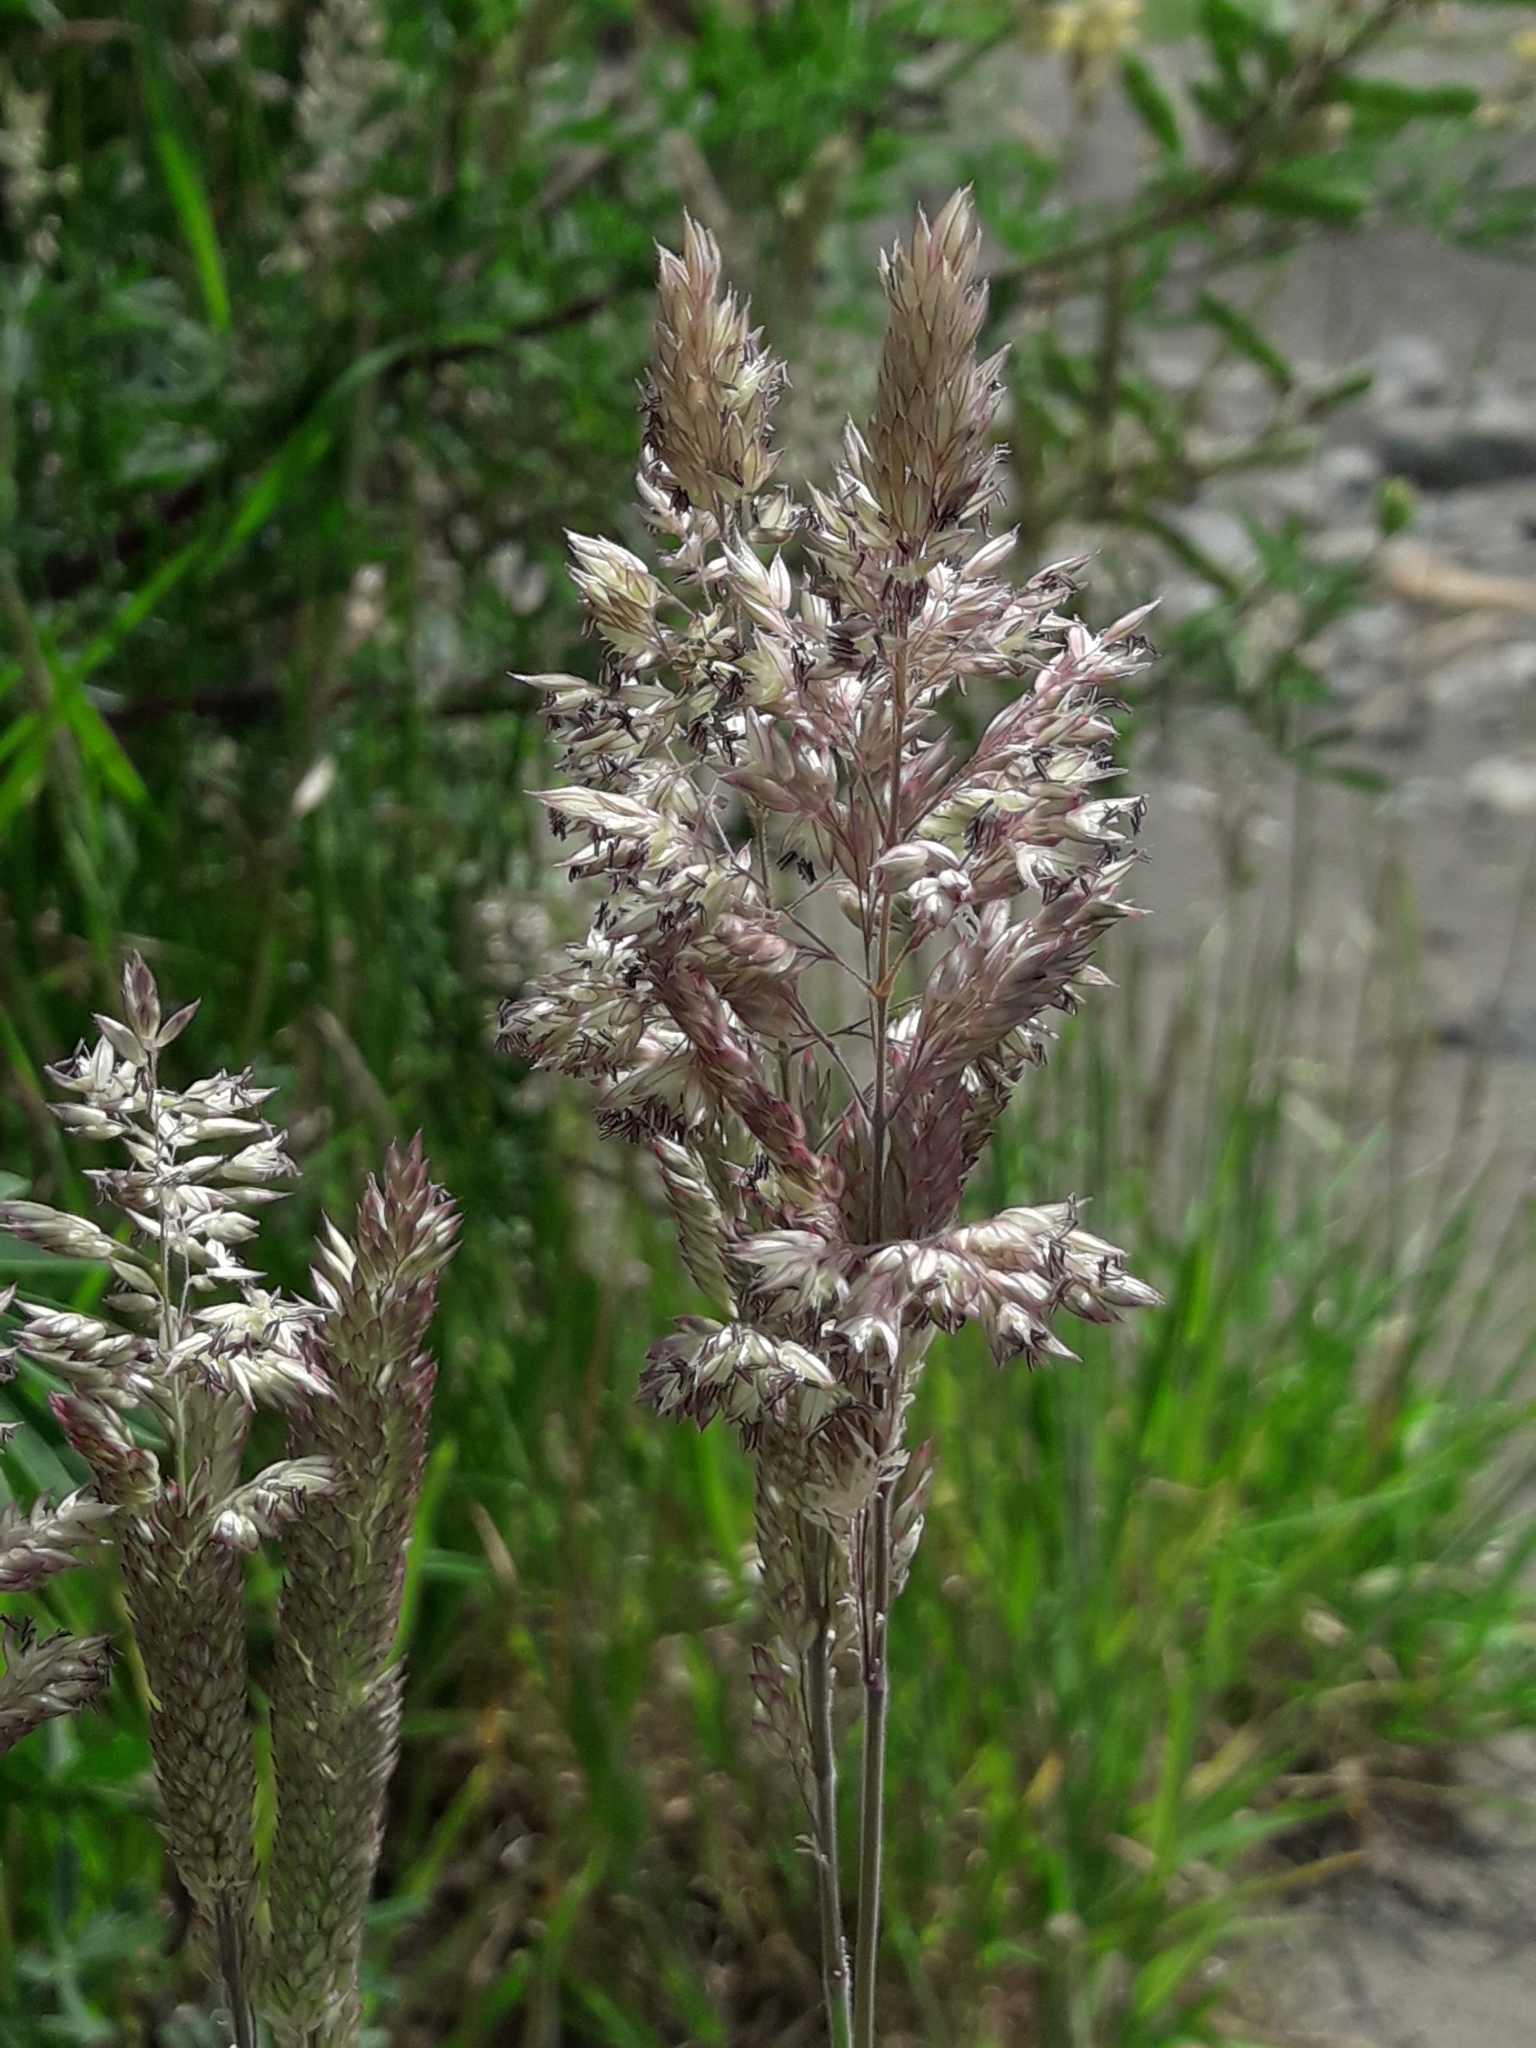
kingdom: Plantae
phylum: Tracheophyta
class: Liliopsida
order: Poales
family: Poaceae
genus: Holcus
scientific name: Holcus lanatus
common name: Yorkshire-fog
